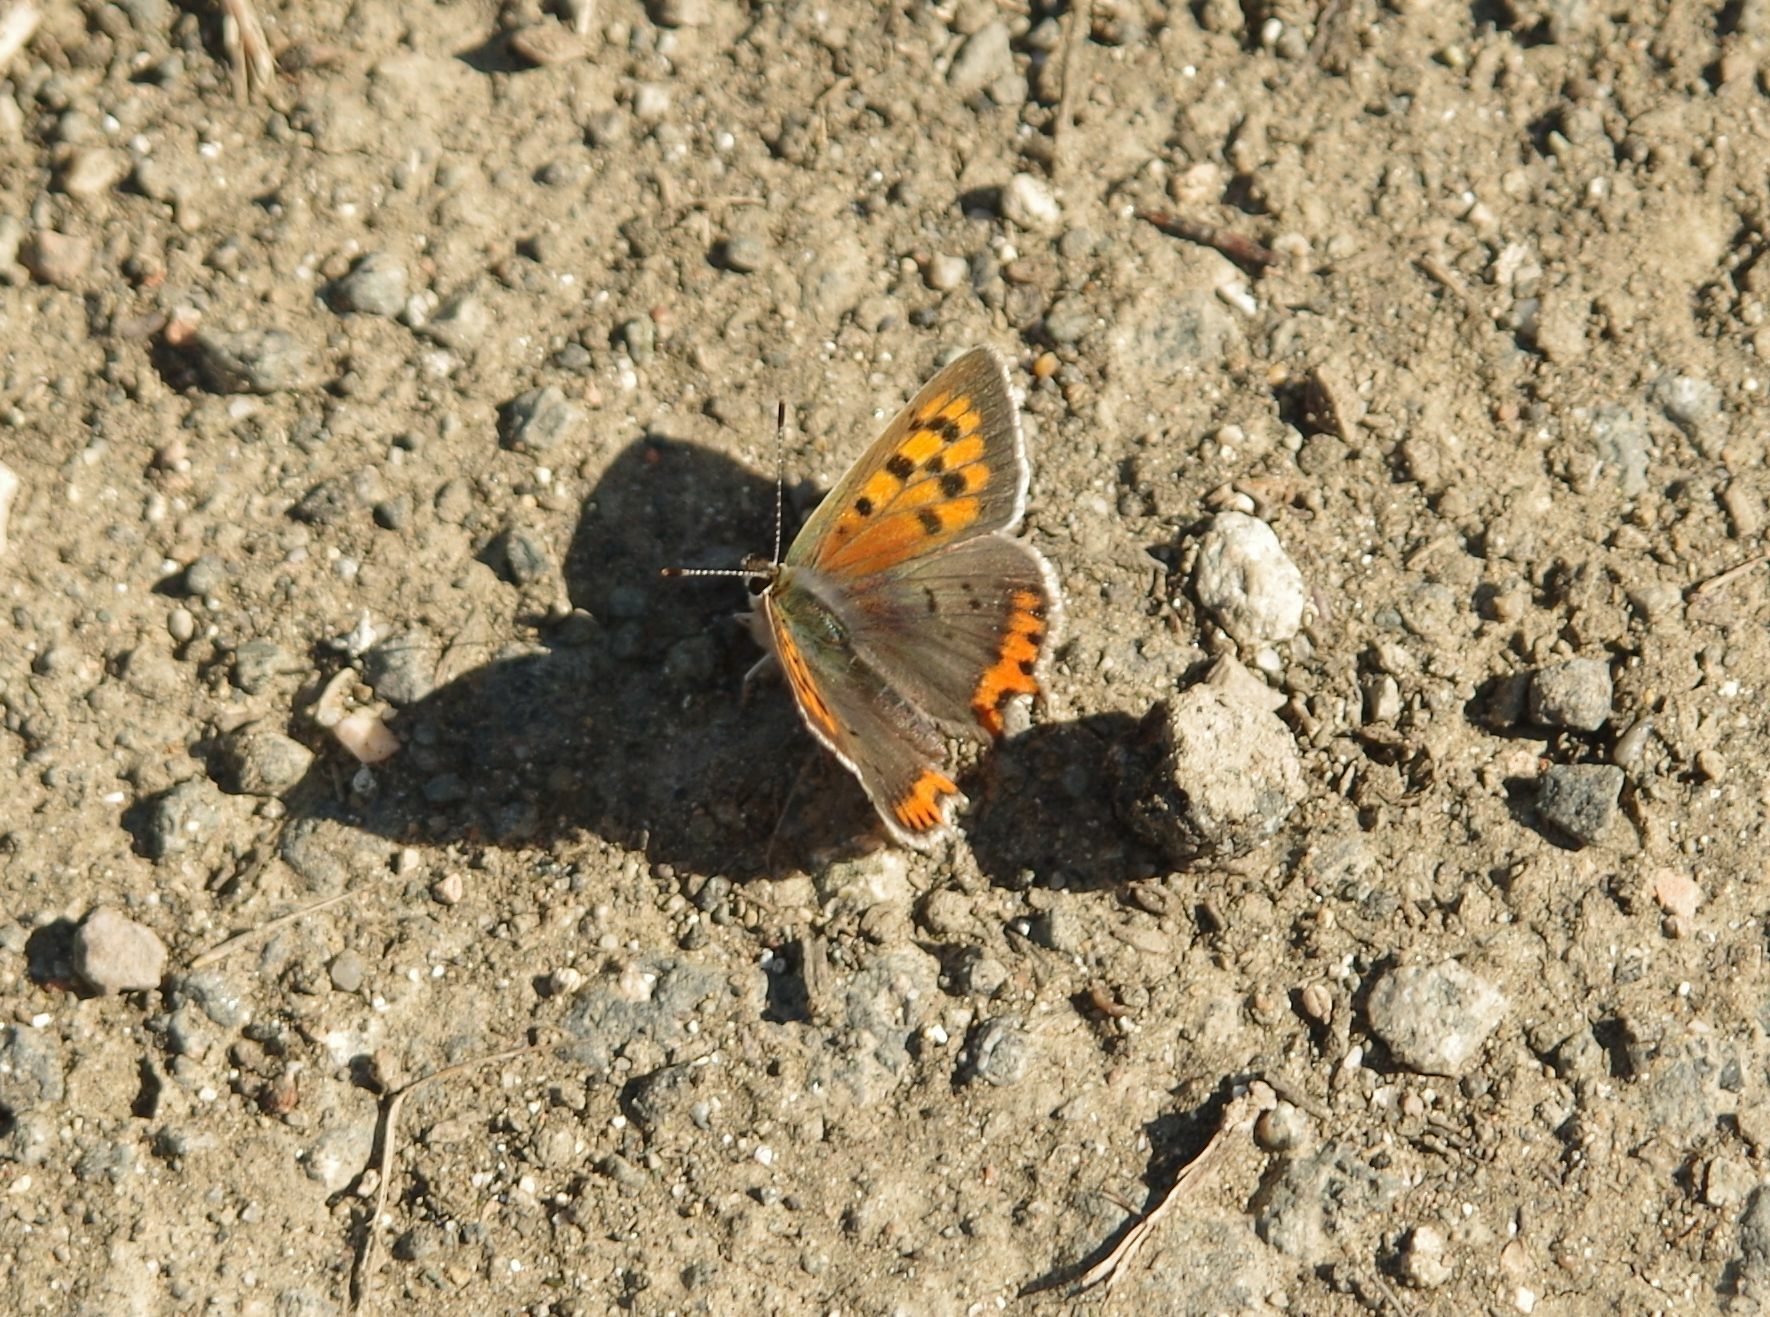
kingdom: Animalia
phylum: Arthropoda
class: Insecta
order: Lepidoptera
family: Lycaenidae
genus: Lycaena
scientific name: Lycaena phlaeas
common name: Small copper
